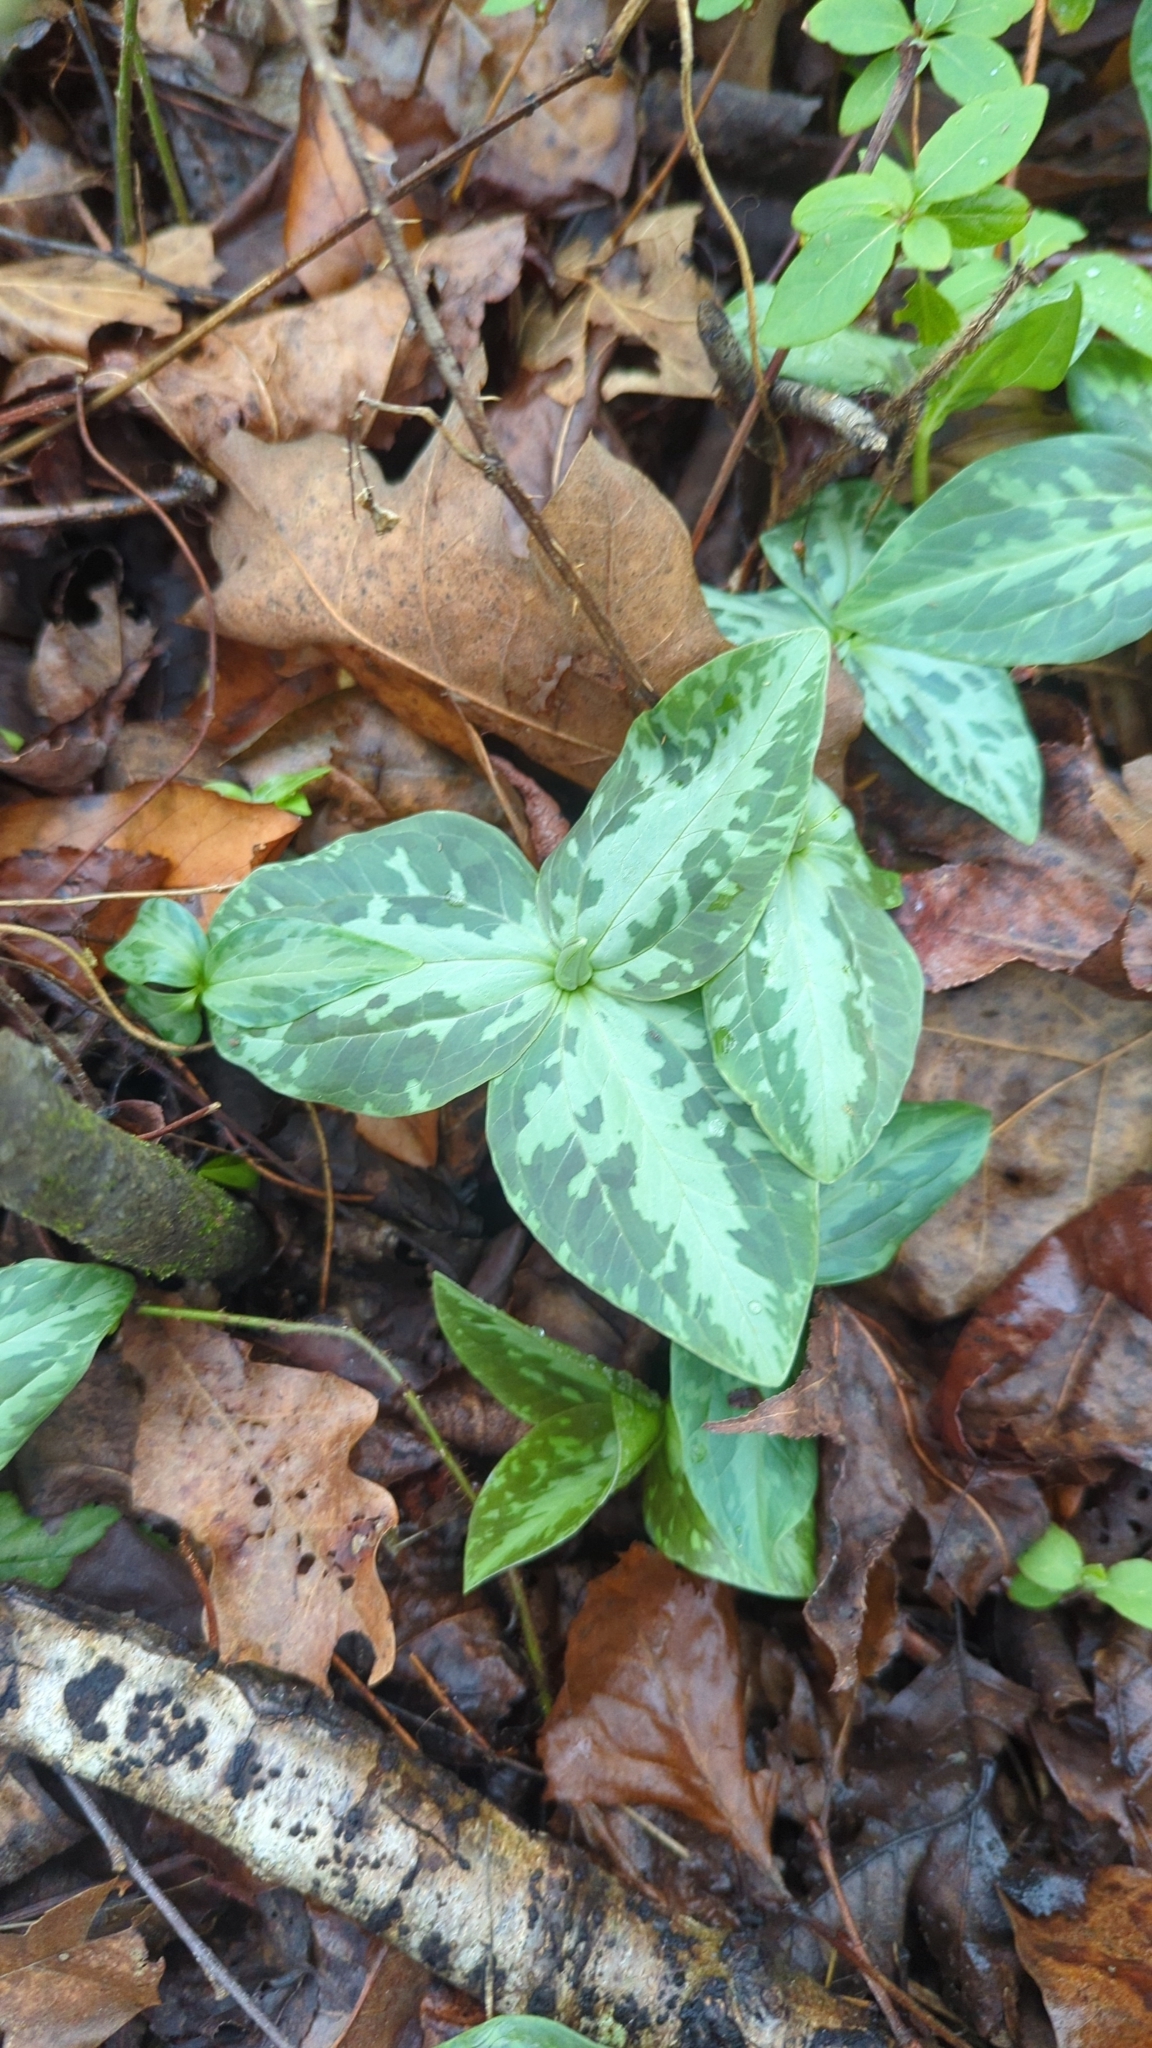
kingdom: Plantae
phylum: Tracheophyta
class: Liliopsida
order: Liliales
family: Melanthiaceae
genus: Trillium
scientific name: Trillium foetidissimum
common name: Mississippi river trillium
